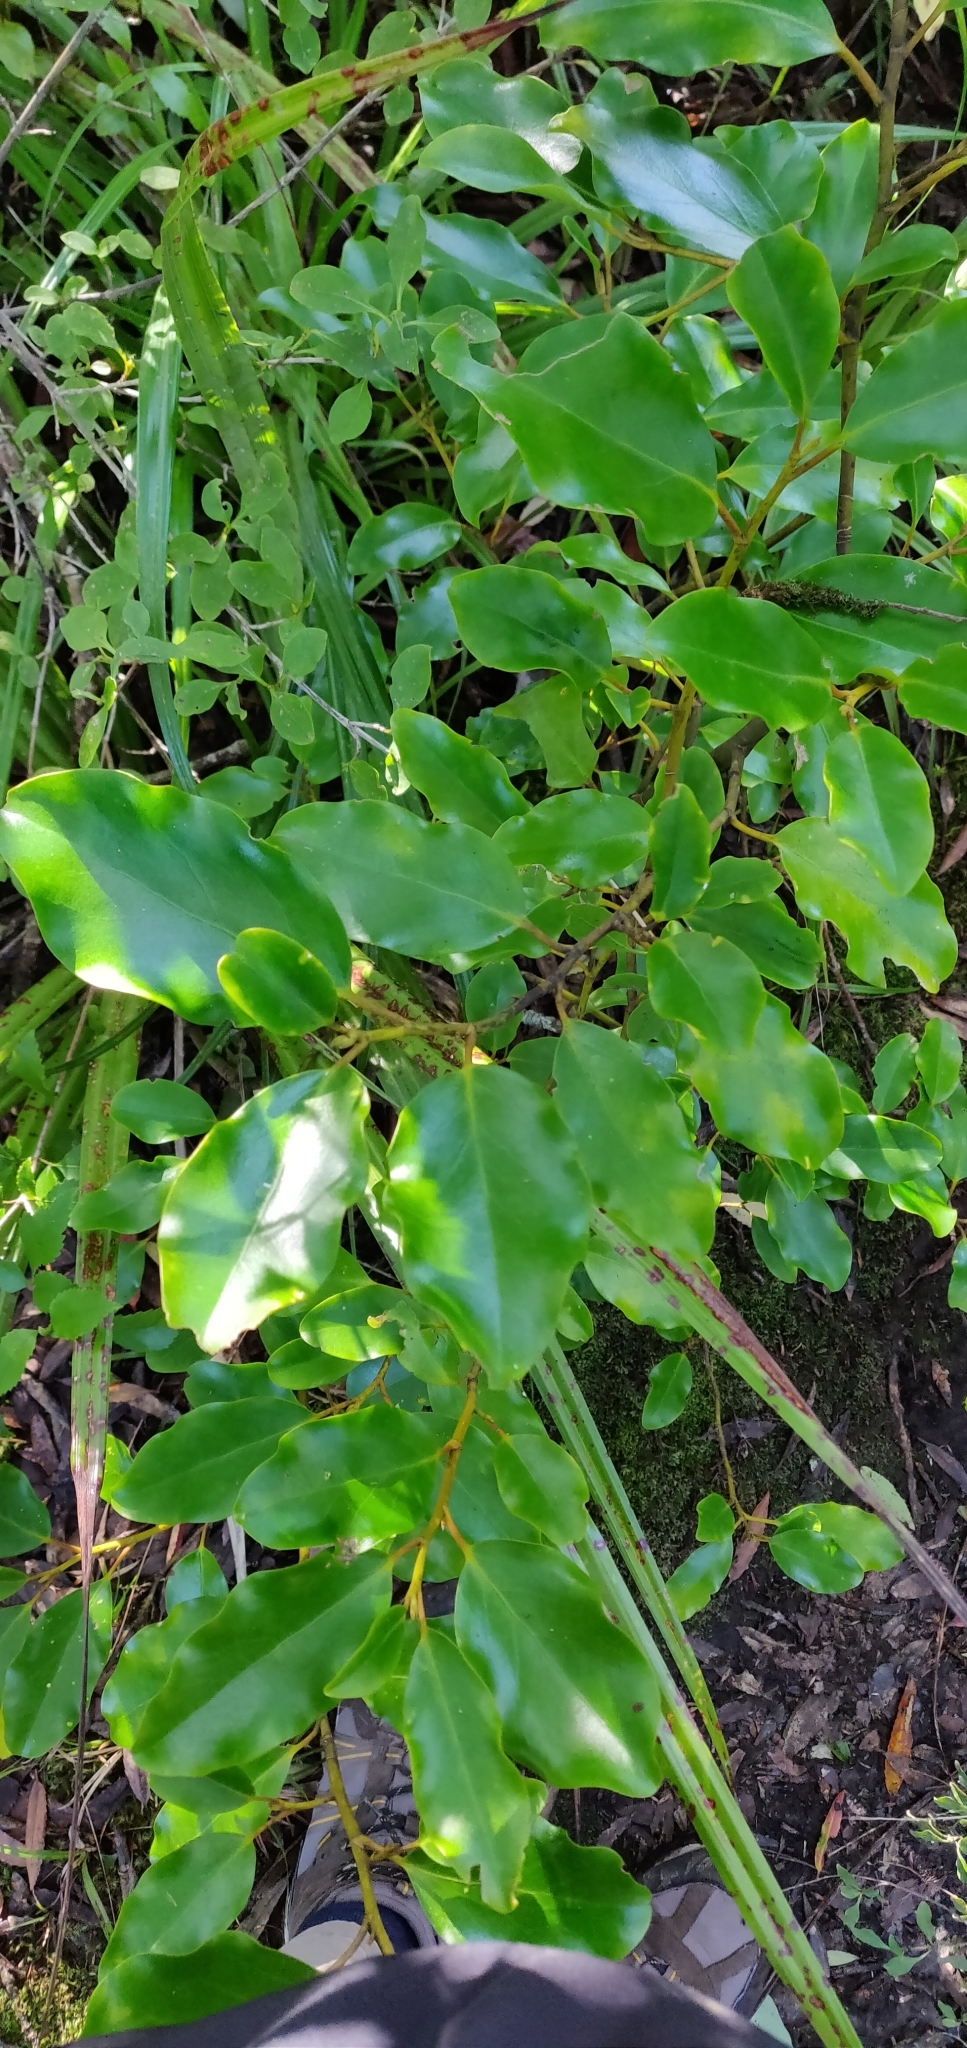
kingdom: Plantae
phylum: Tracheophyta
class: Magnoliopsida
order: Apiales
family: Griseliniaceae
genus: Griselinia
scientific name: Griselinia littoralis
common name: New zealand broadleaf
